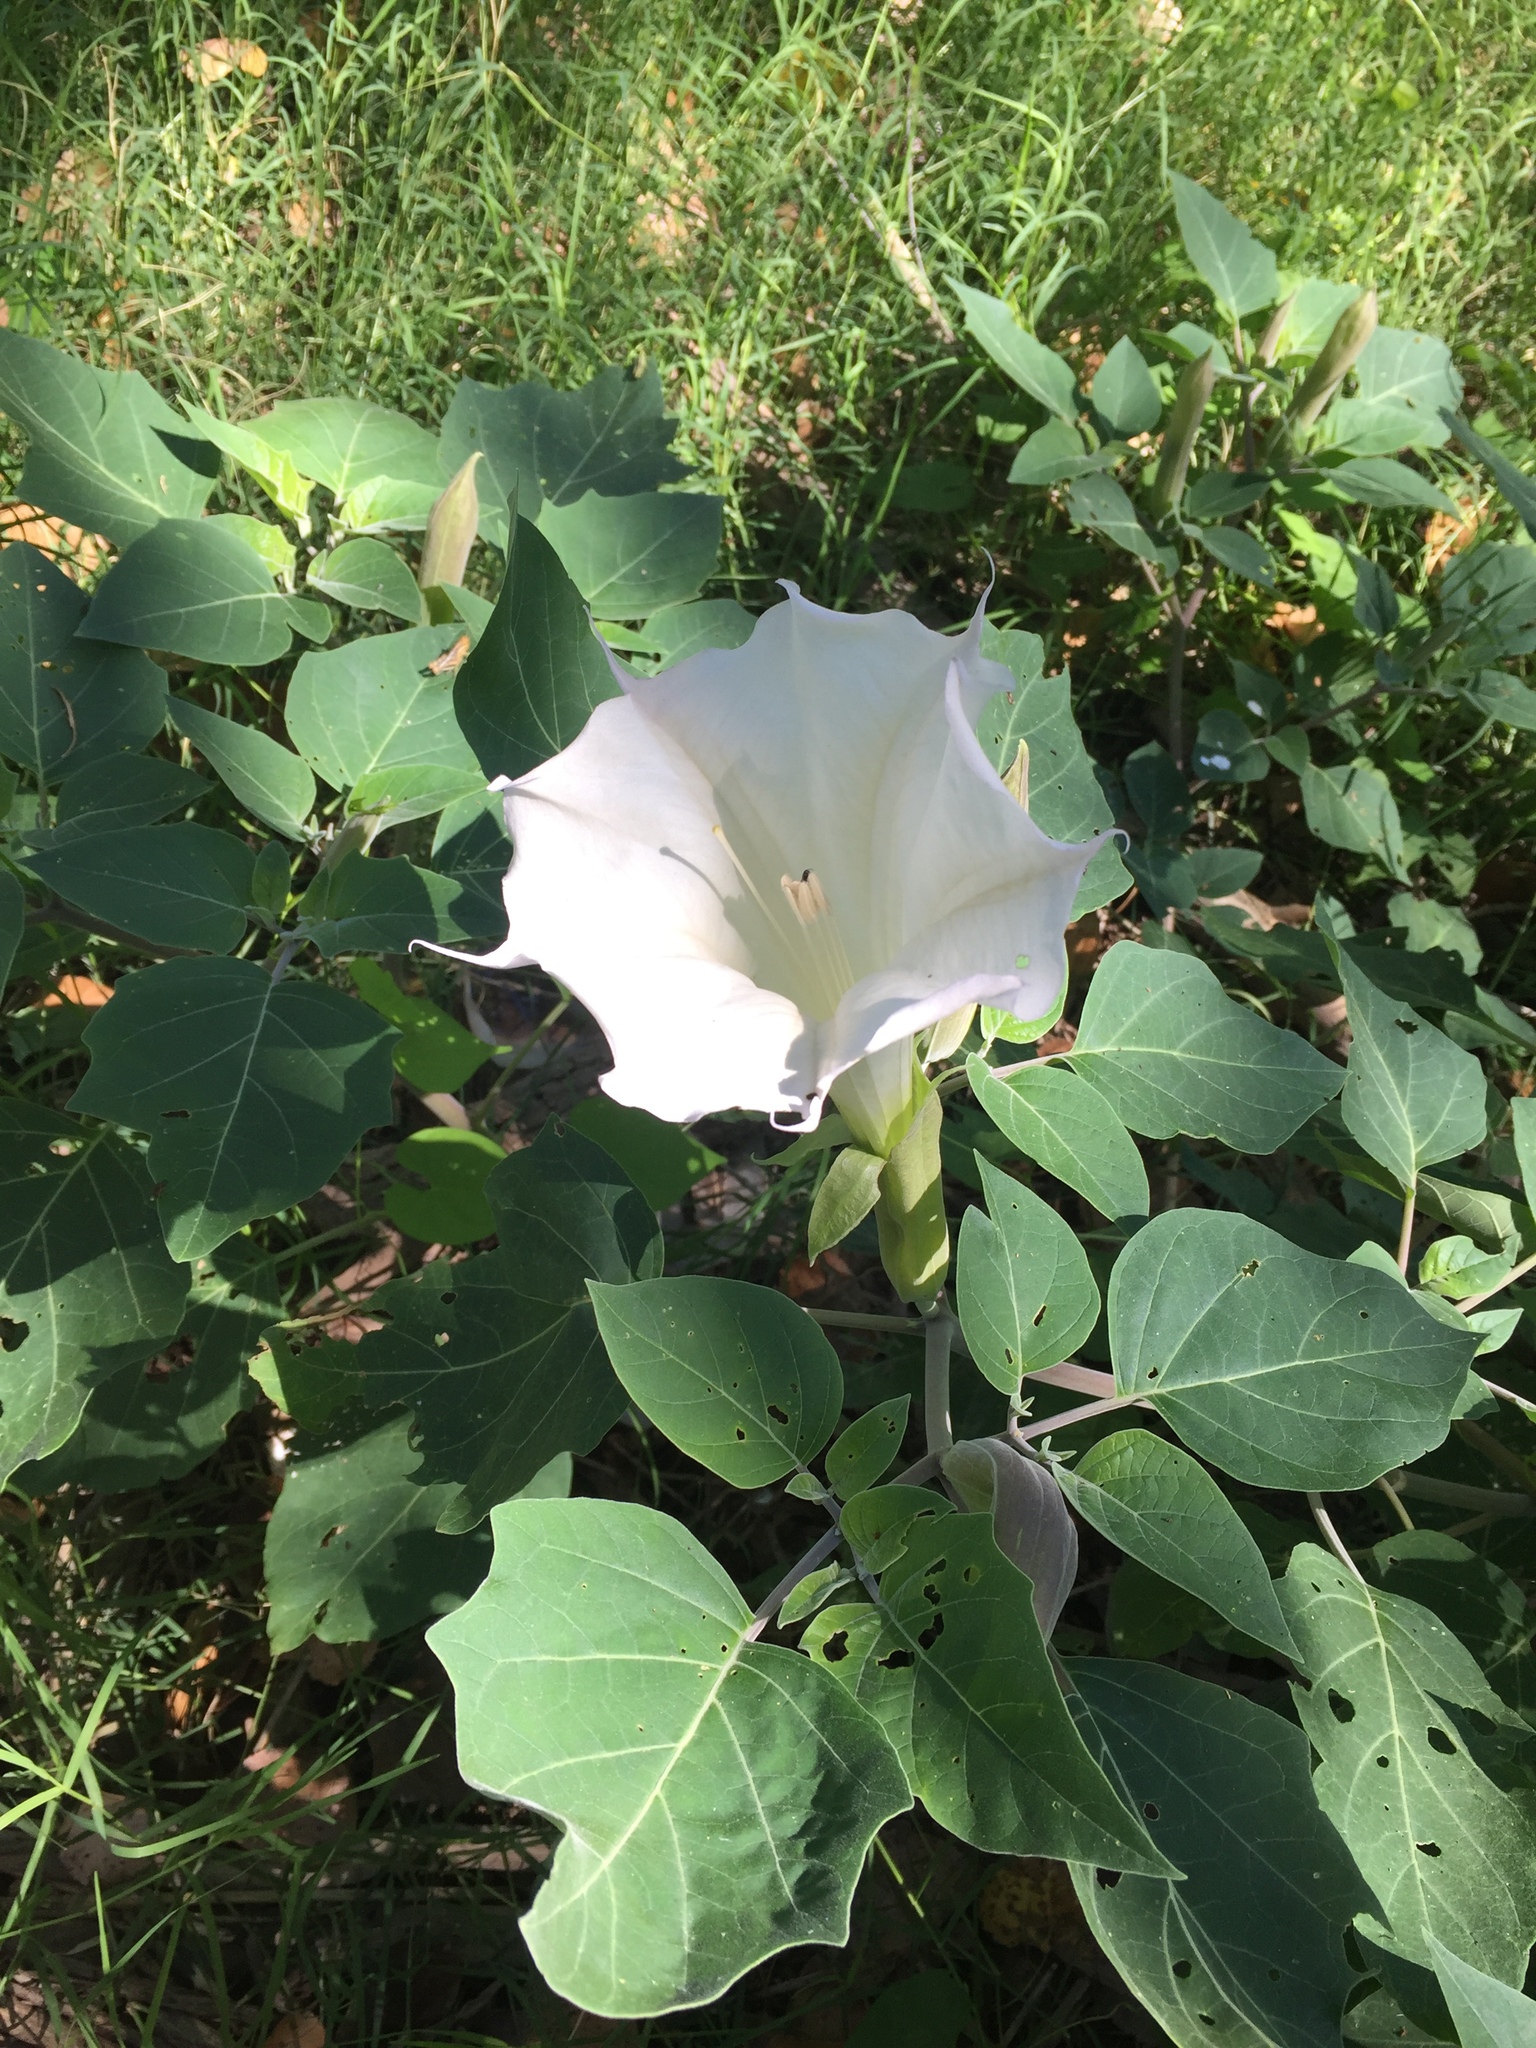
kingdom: Plantae
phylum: Tracheophyta
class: Magnoliopsida
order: Solanales
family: Solanaceae
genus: Datura
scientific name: Datura wrightii
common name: Sacred thorn-apple
